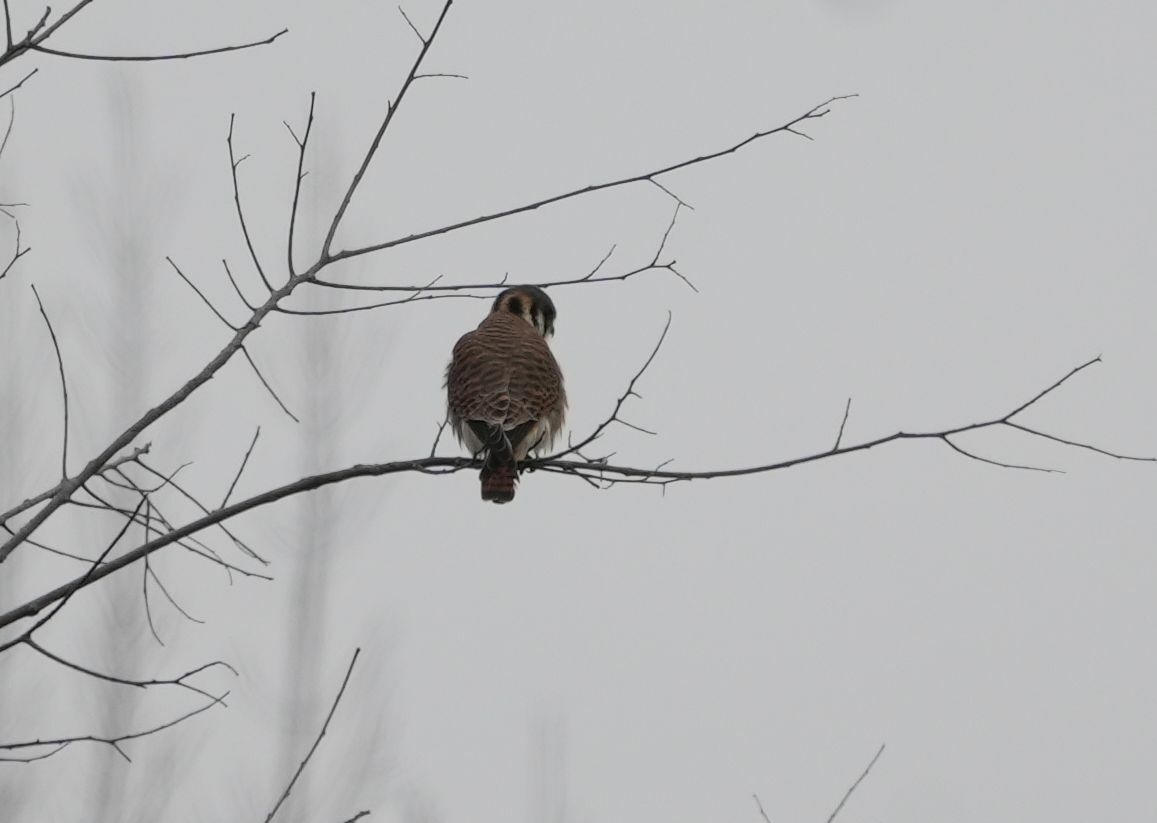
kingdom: Animalia
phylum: Chordata
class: Aves
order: Falconiformes
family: Falconidae
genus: Falco
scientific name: Falco sparverius
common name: American kestrel
